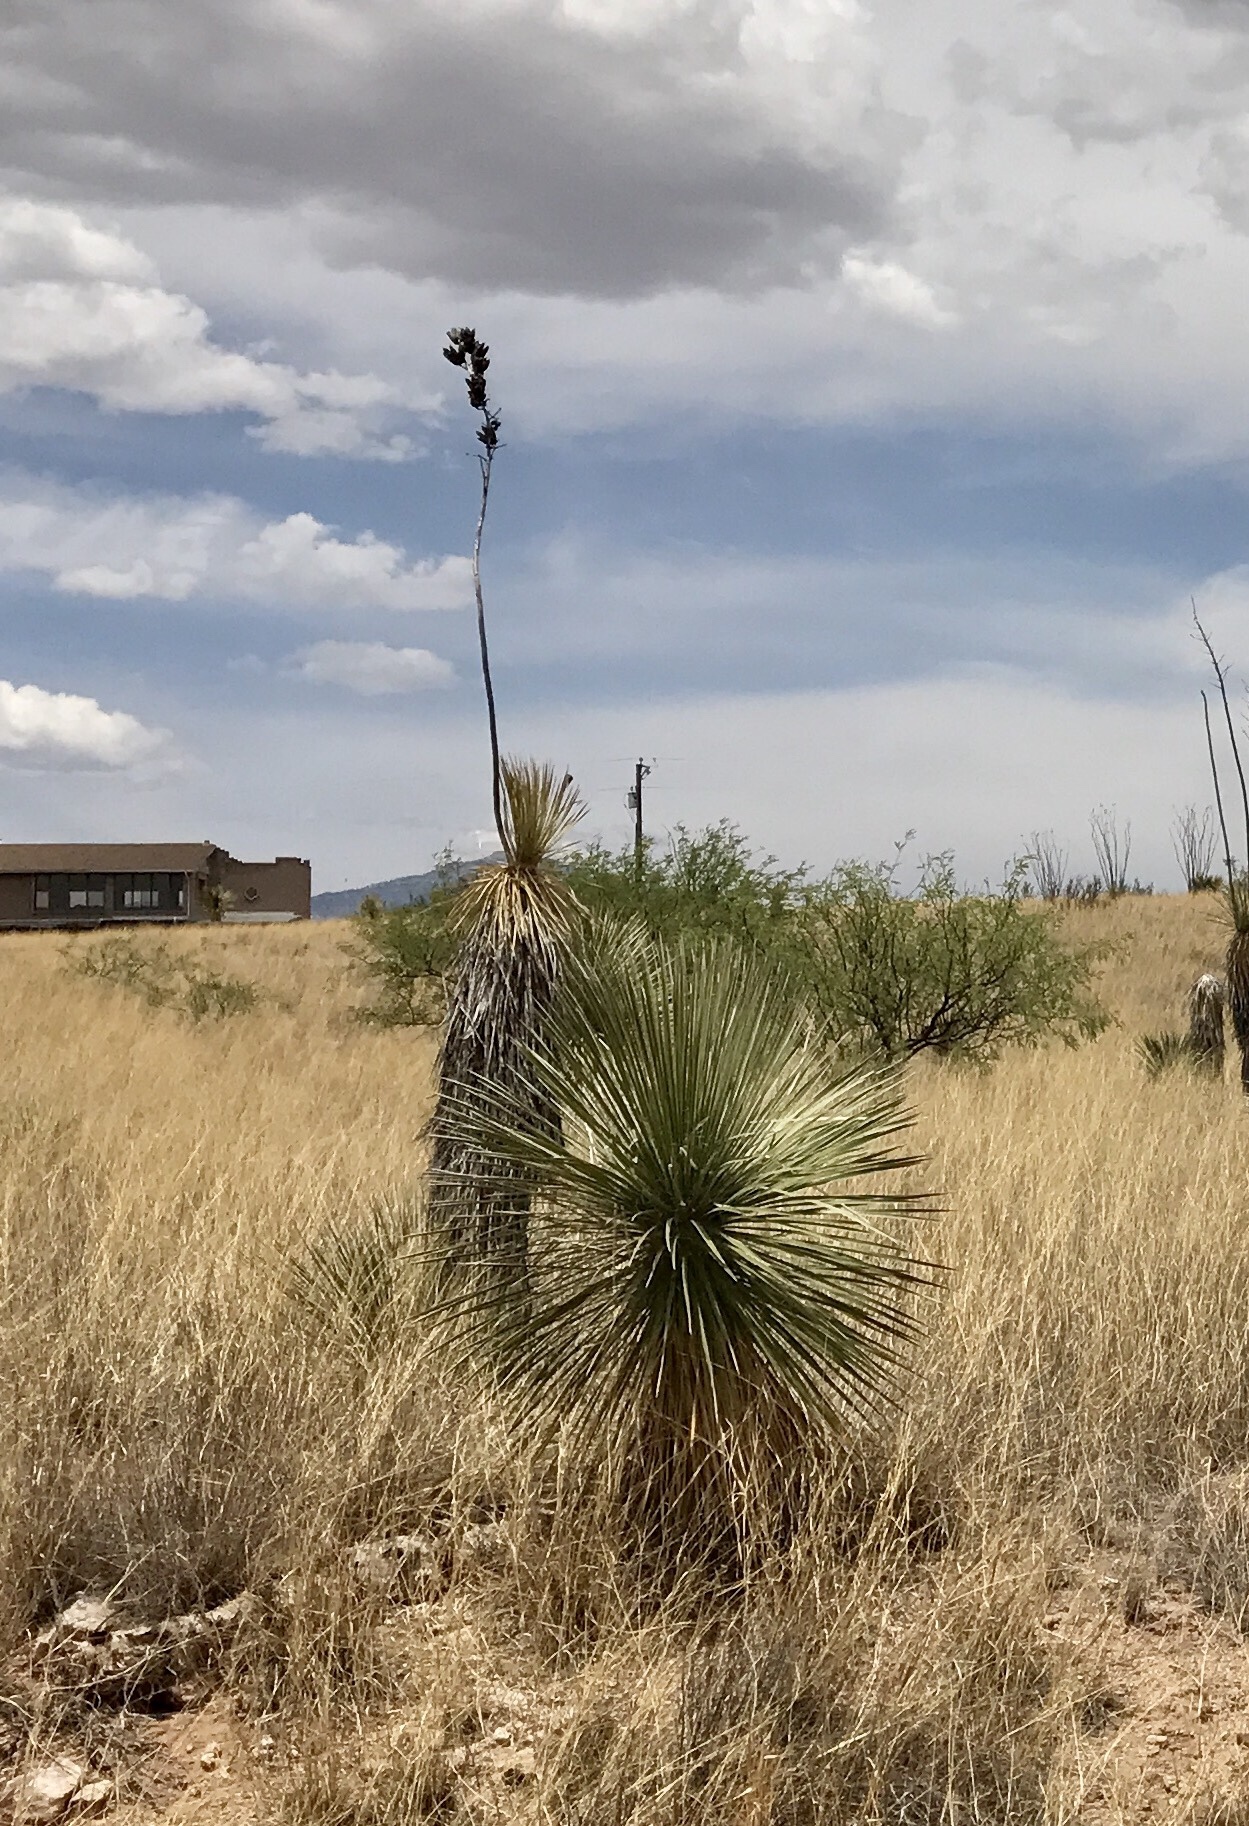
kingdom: Plantae
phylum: Tracheophyta
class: Liliopsida
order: Asparagales
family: Asparagaceae
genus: Yucca
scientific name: Yucca elata
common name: Palmella
